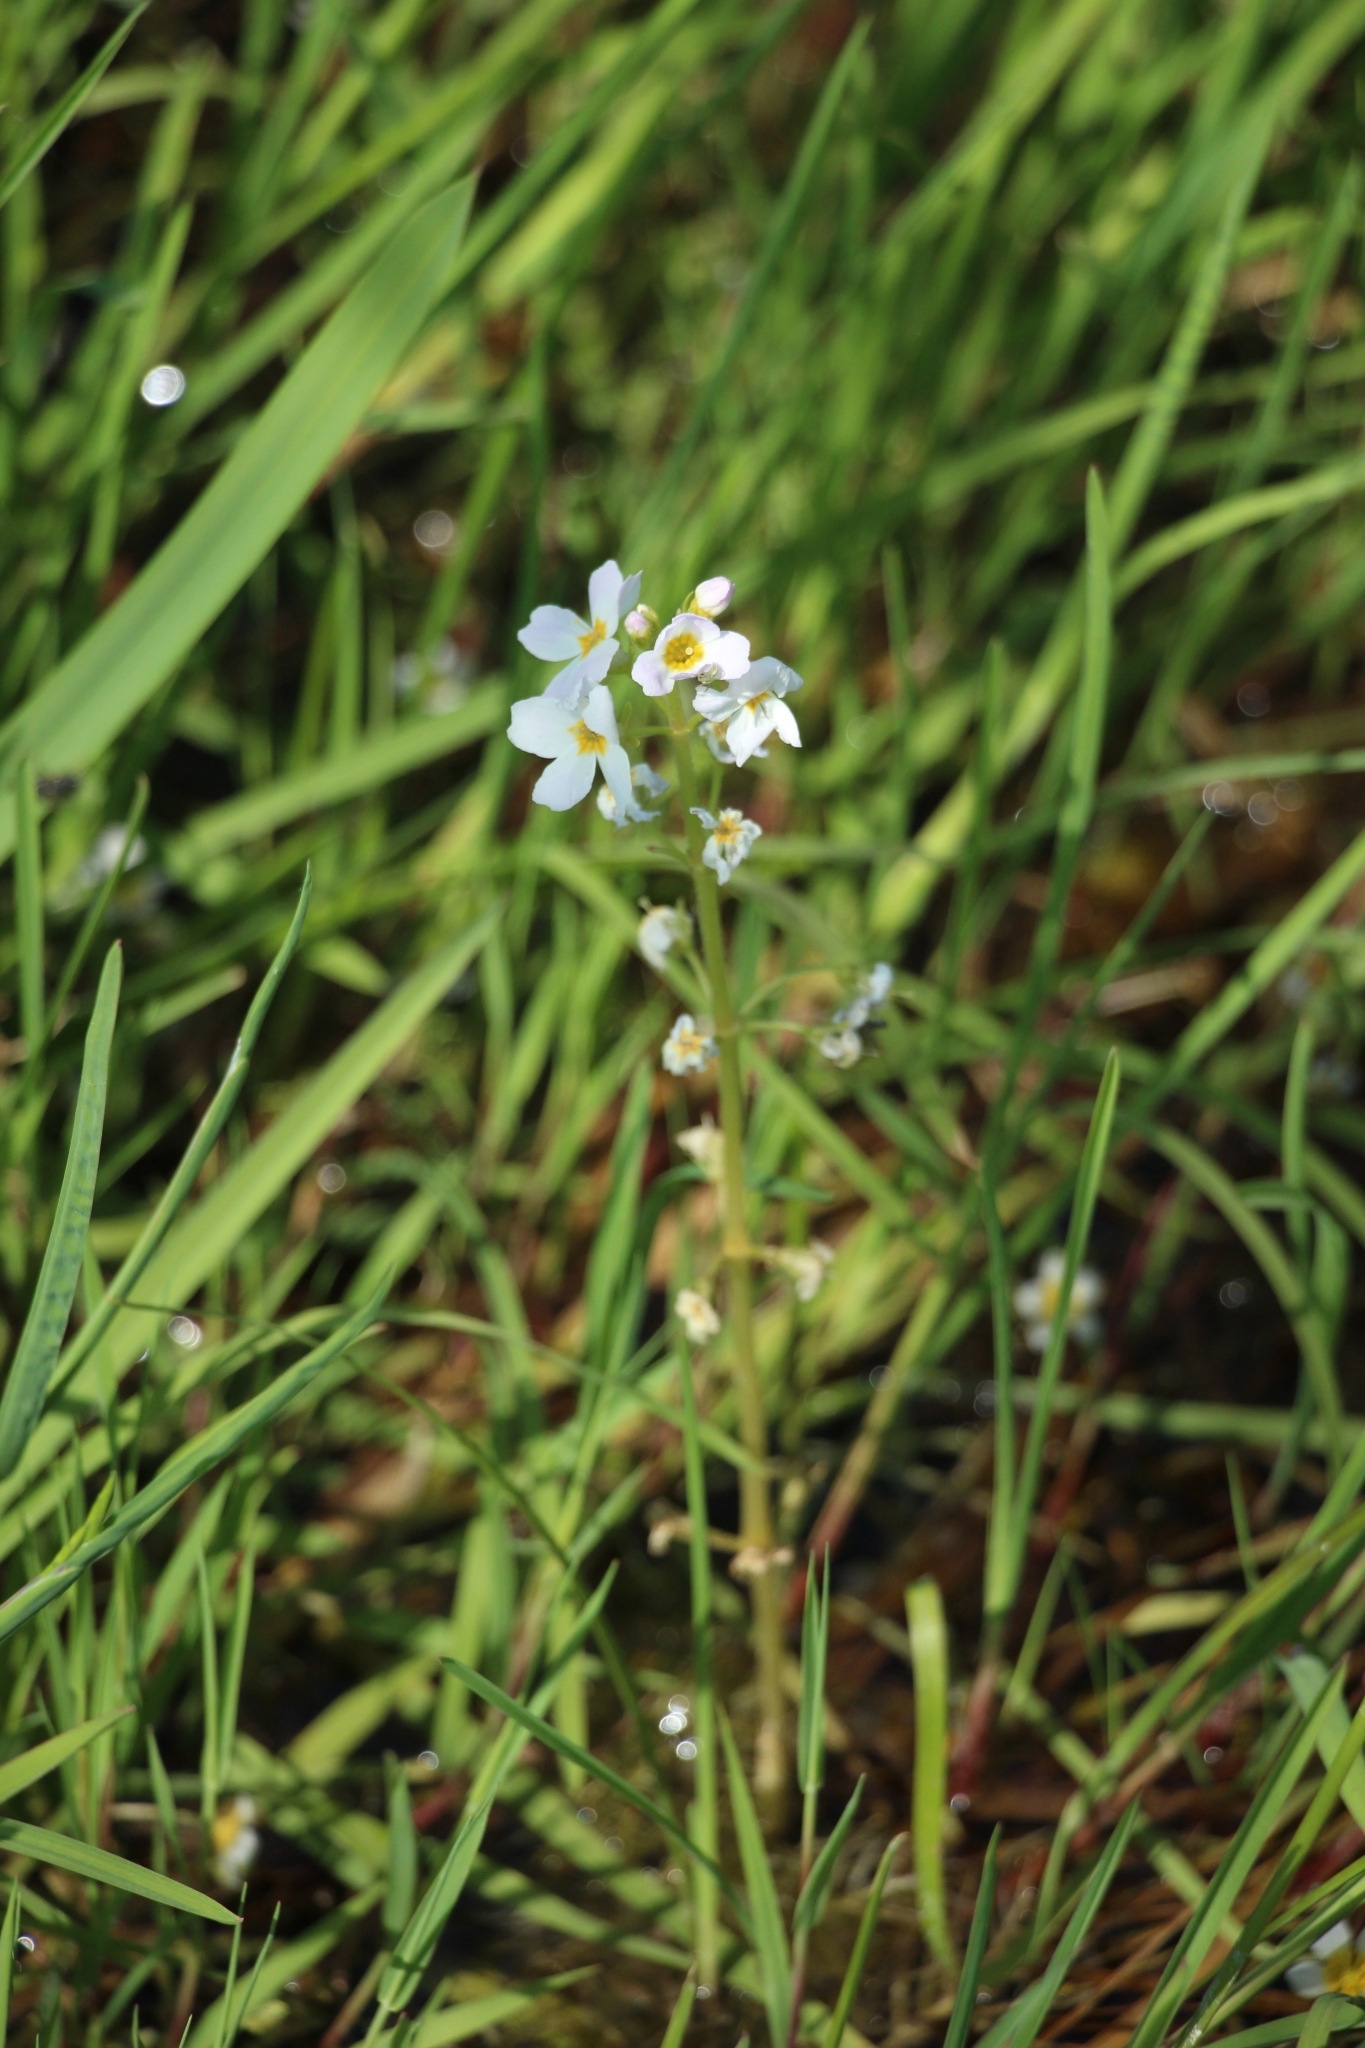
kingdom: Plantae
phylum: Tracheophyta
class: Magnoliopsida
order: Ericales
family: Primulaceae
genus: Hottonia
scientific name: Hottonia palustris
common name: Water-violet
